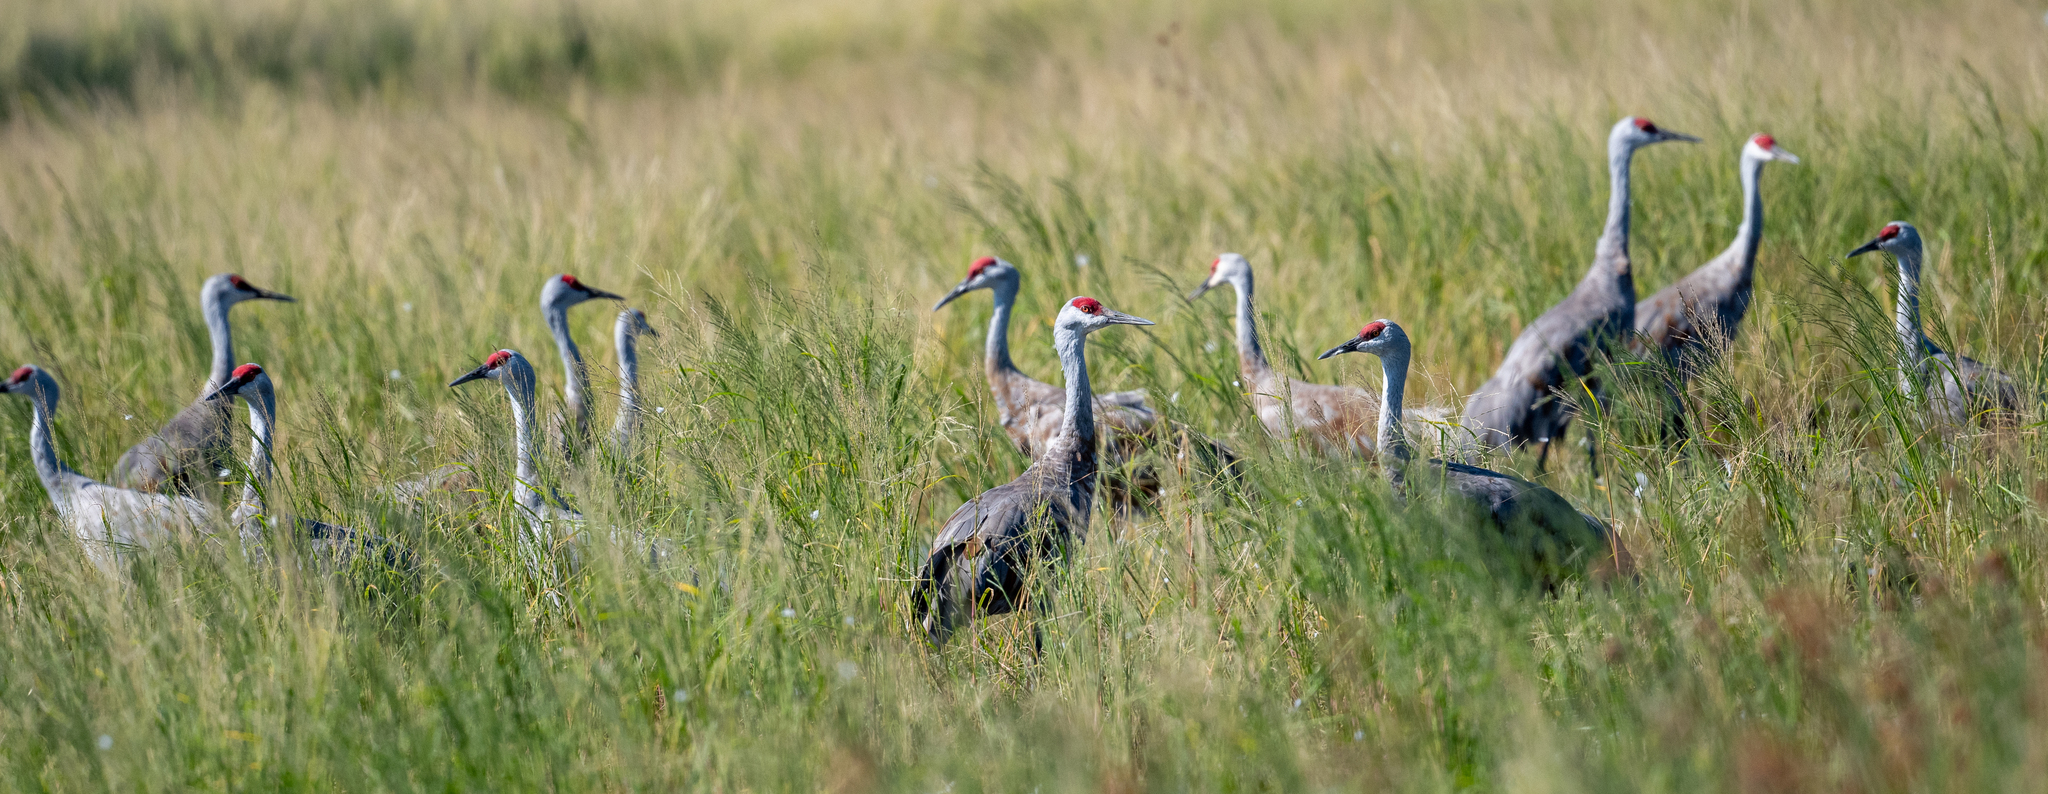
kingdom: Animalia
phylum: Chordata
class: Aves
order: Gruiformes
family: Gruidae
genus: Grus
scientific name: Grus canadensis
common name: Sandhill crane
